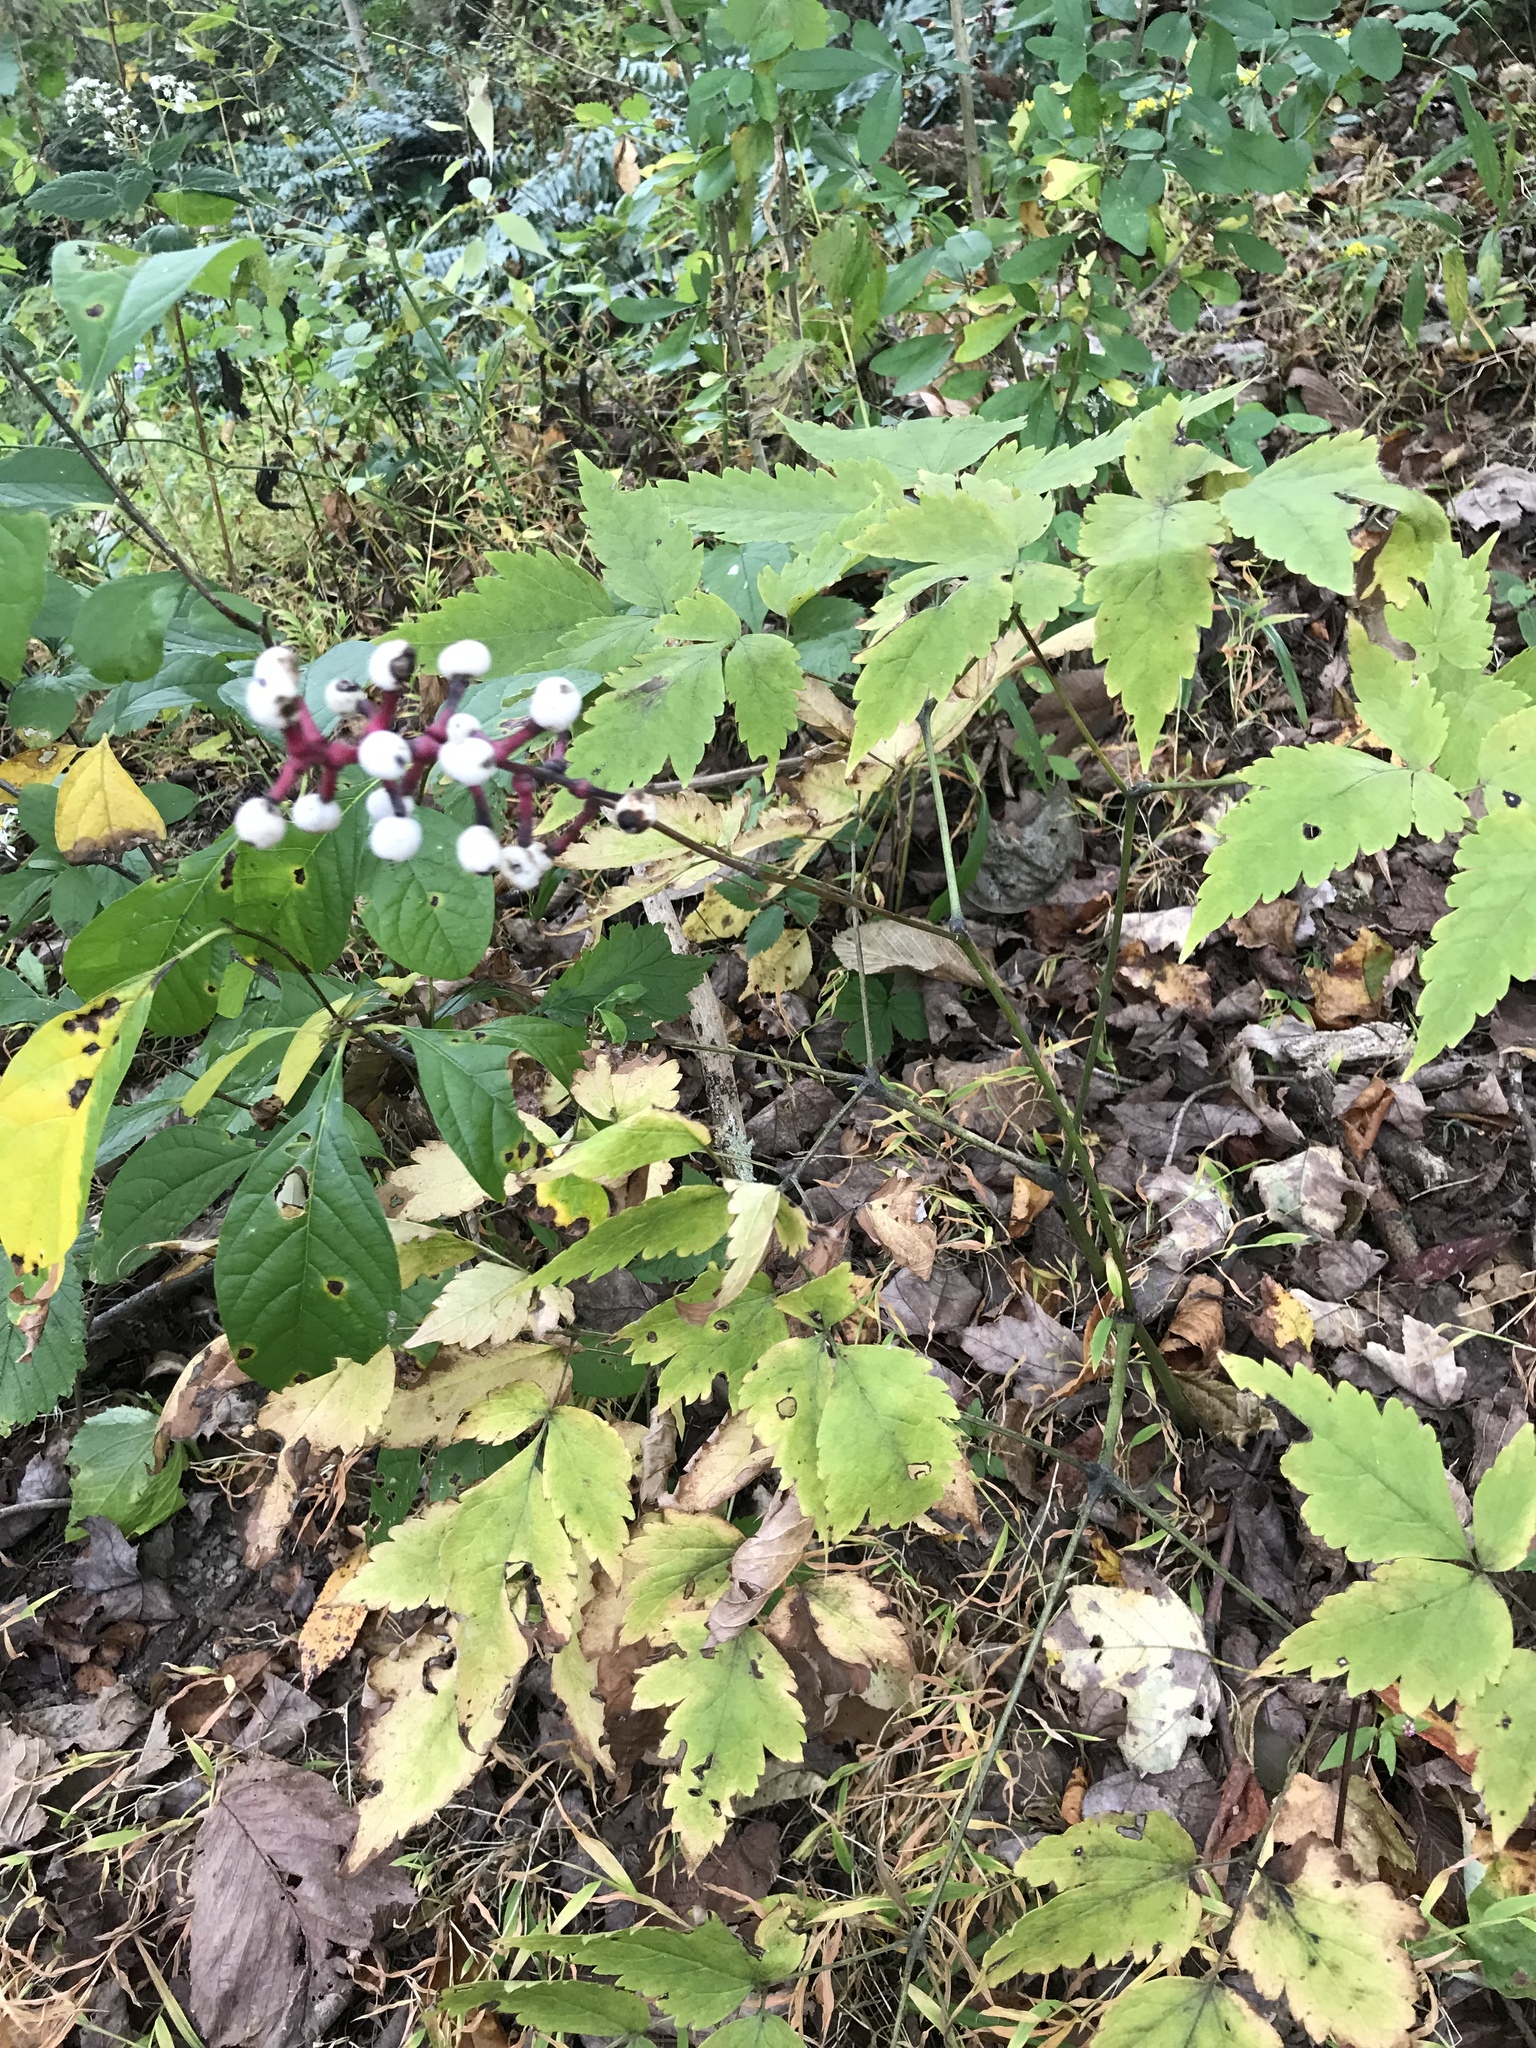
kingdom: Plantae
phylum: Tracheophyta
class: Magnoliopsida
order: Ranunculales
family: Ranunculaceae
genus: Actaea
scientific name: Actaea pachypoda
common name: Doll's-eyes
